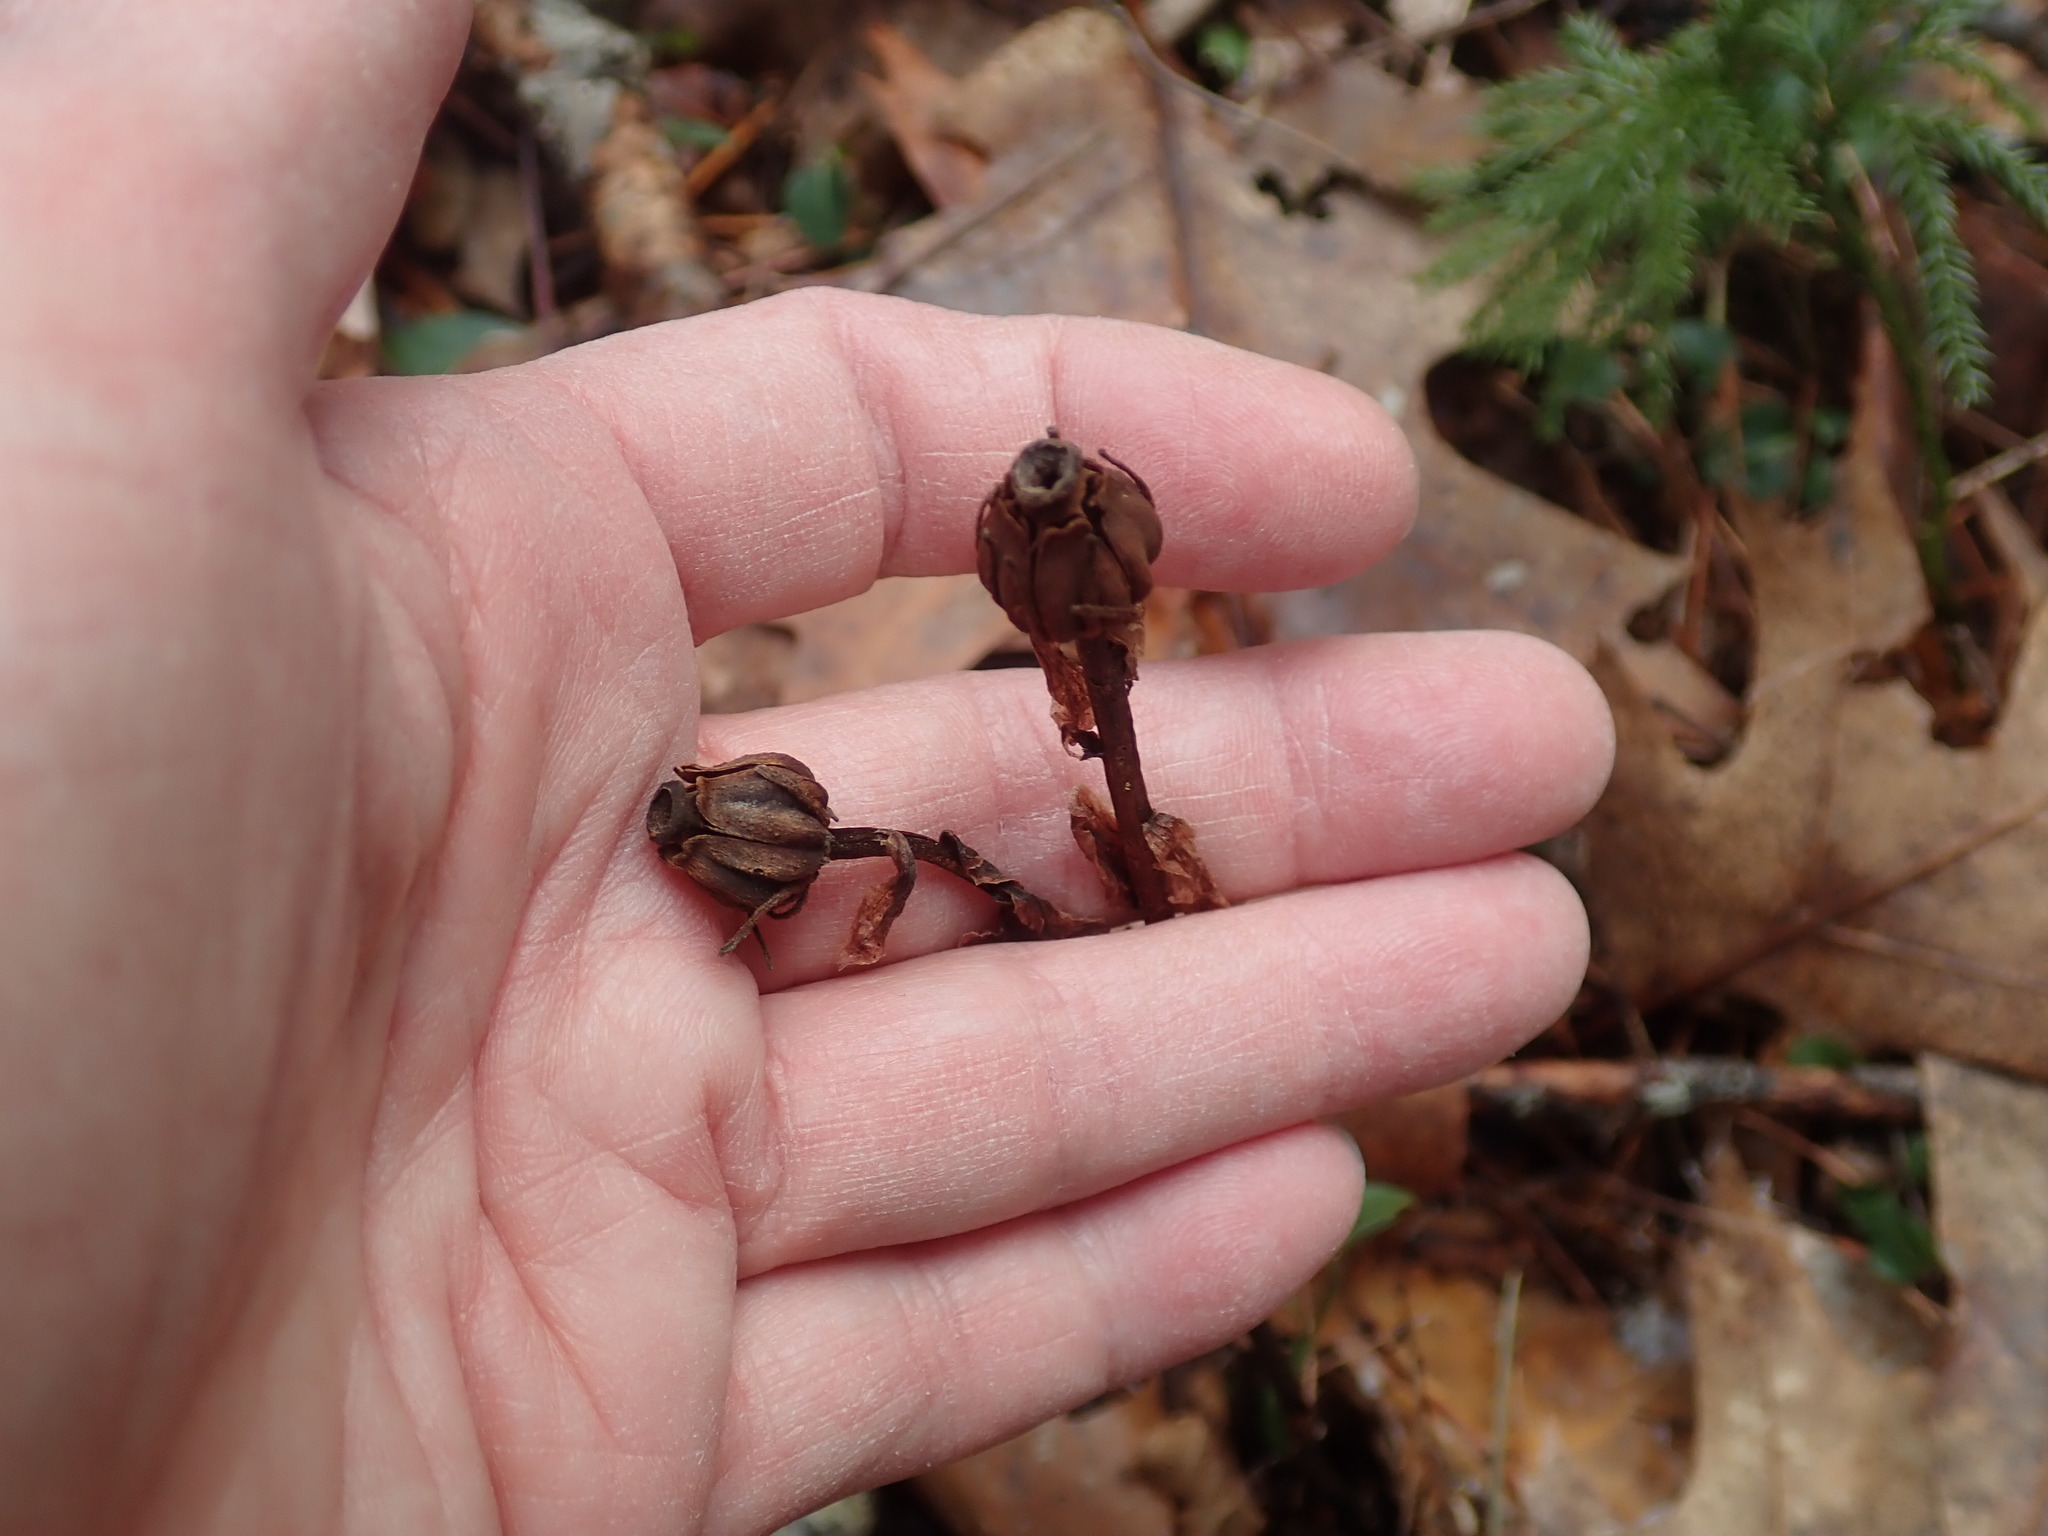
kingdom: Plantae
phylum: Tracheophyta
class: Magnoliopsida
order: Ericales
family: Ericaceae
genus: Monotropa
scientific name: Monotropa uniflora
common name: Convulsion root
